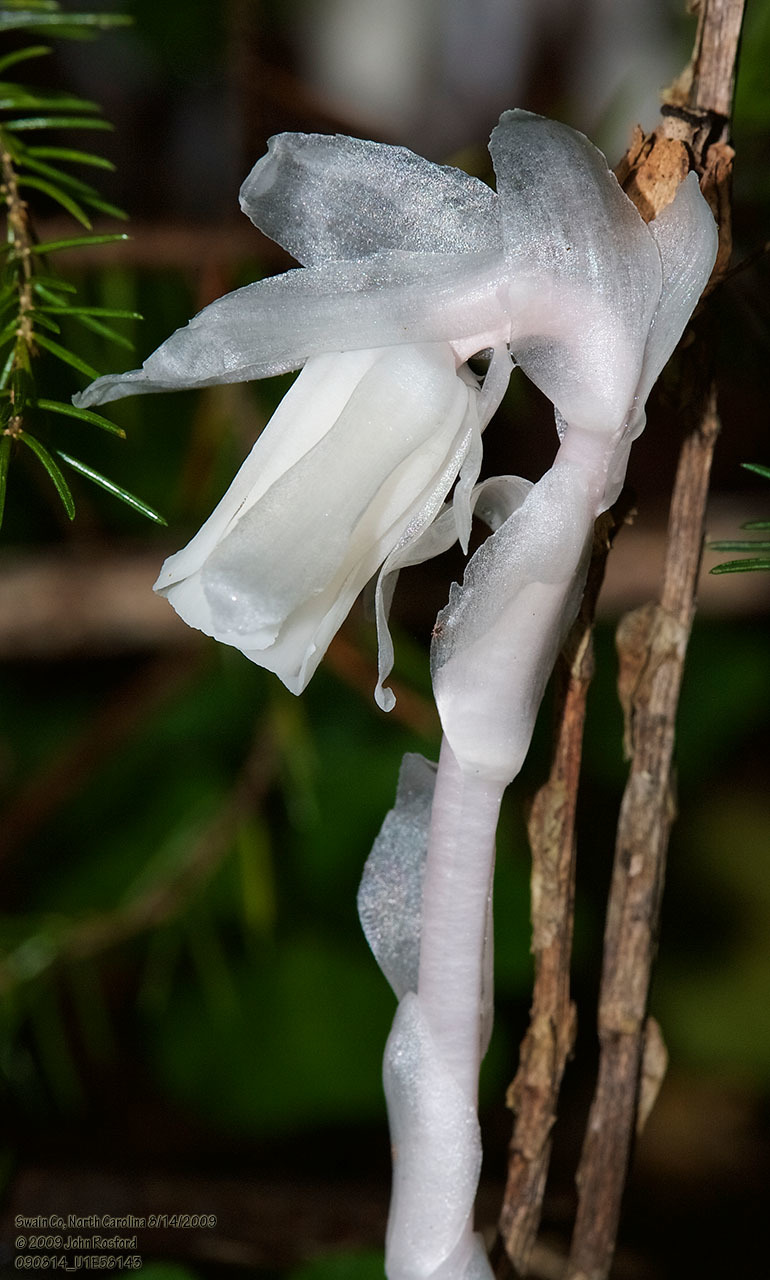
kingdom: Plantae
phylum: Tracheophyta
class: Magnoliopsida
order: Ericales
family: Ericaceae
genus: Monotropa
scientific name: Monotropa uniflora
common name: Convulsion root
